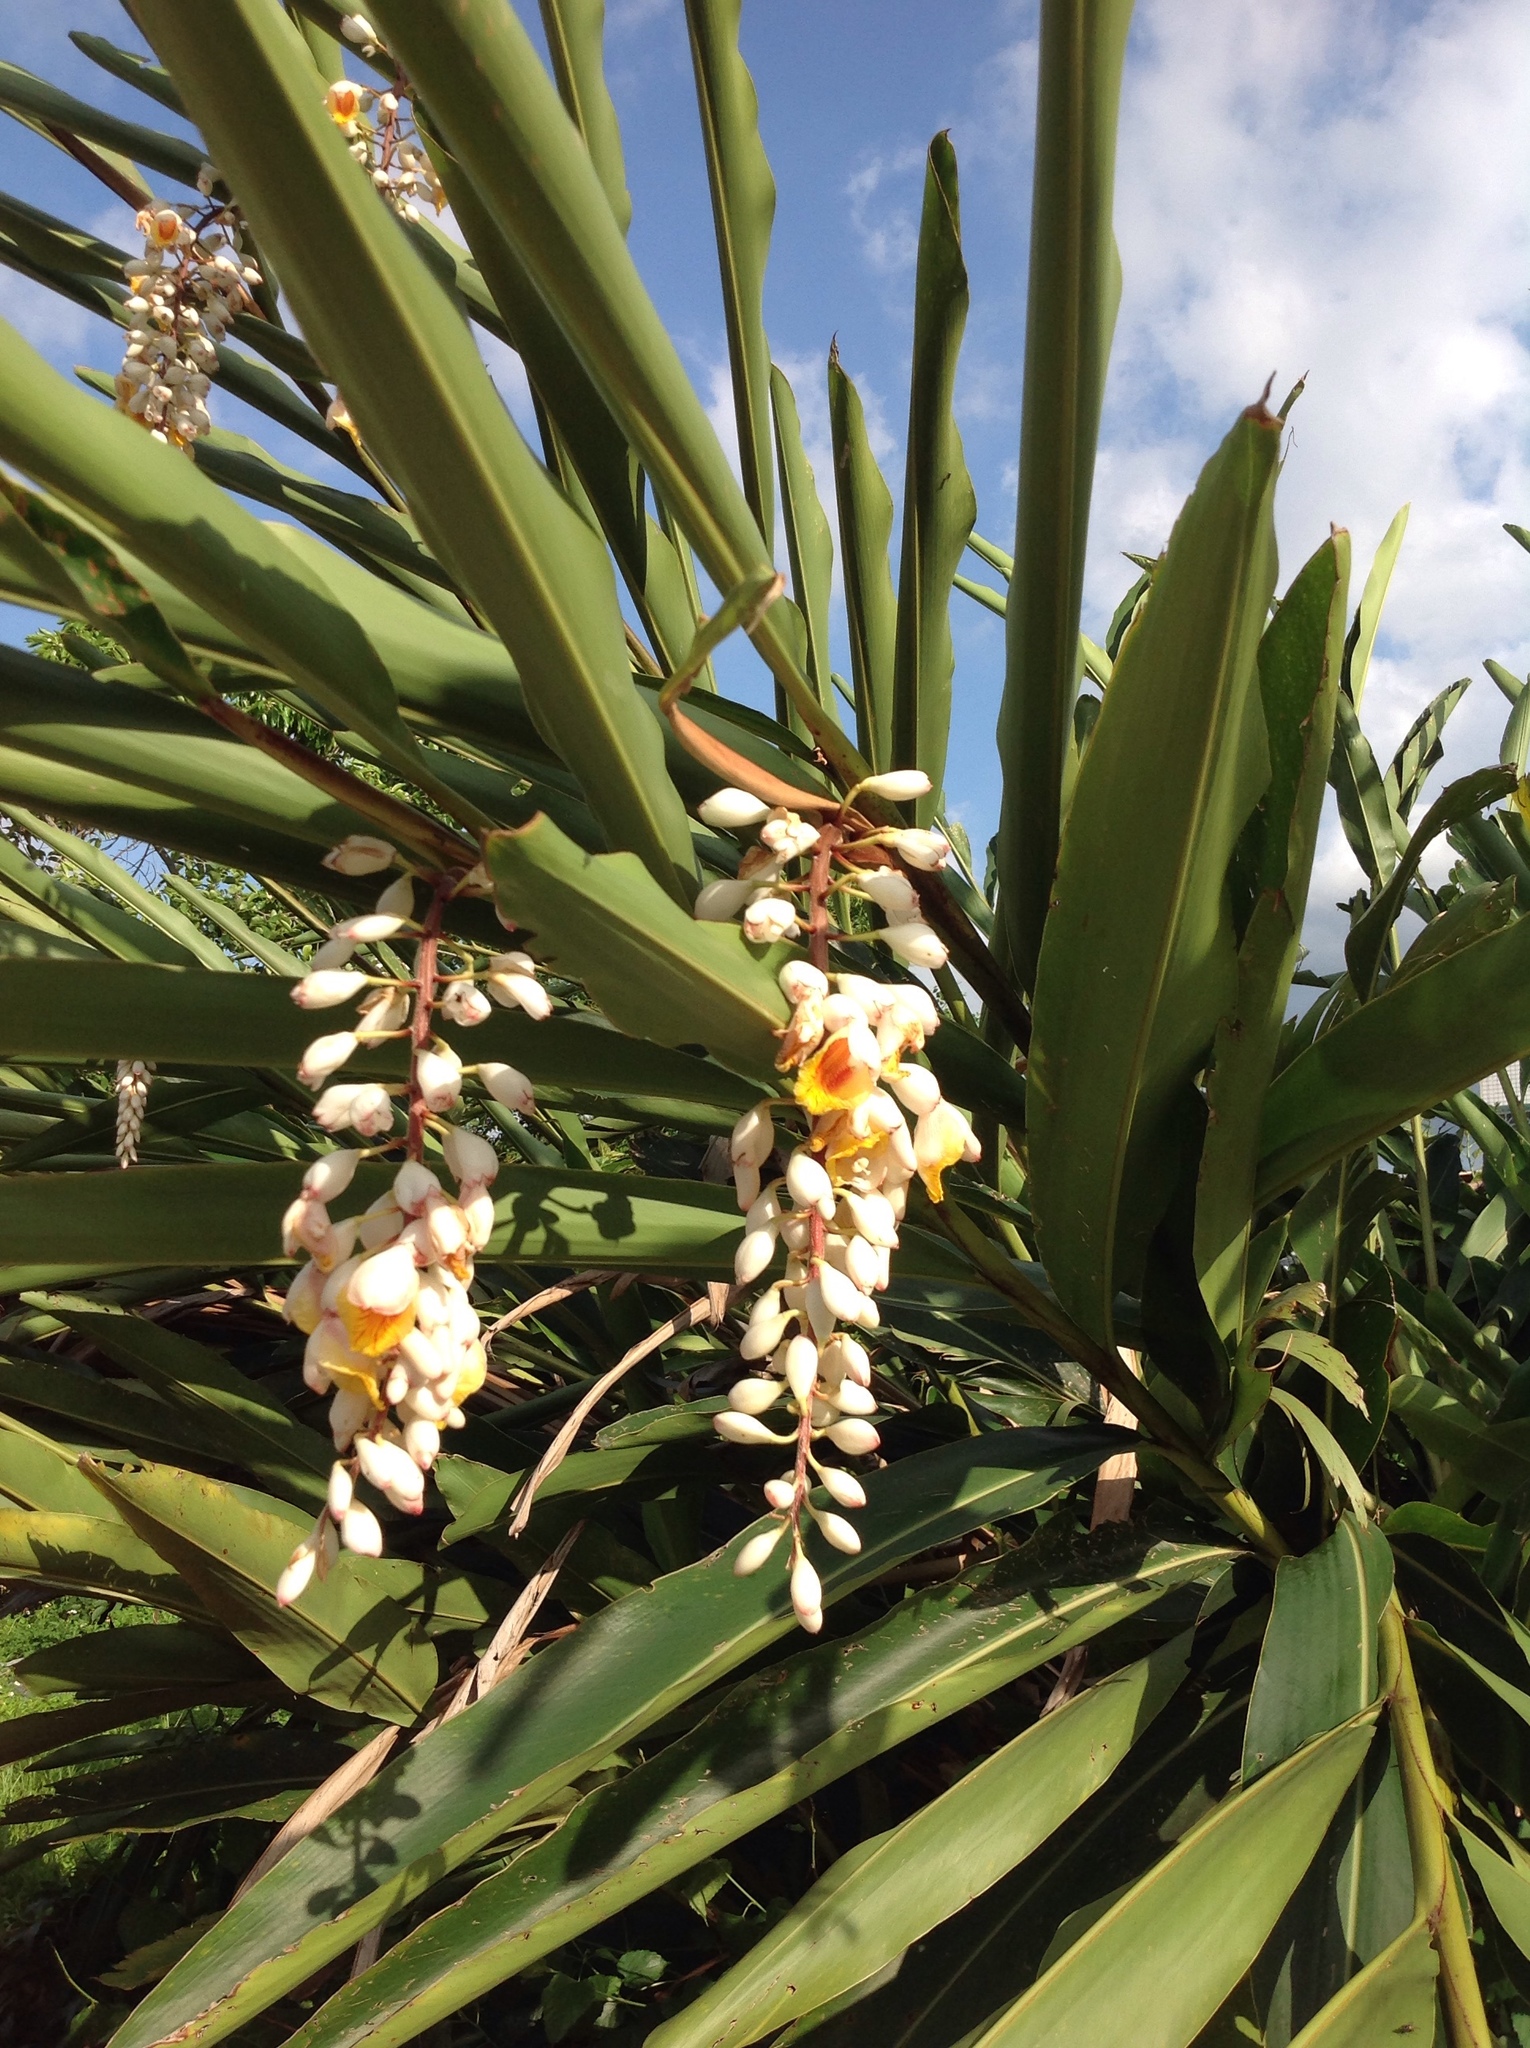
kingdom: Plantae
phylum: Tracheophyta
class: Liliopsida
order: Zingiberales
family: Zingiberaceae
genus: Alpinia
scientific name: Alpinia zerumbet
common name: Shellplant
